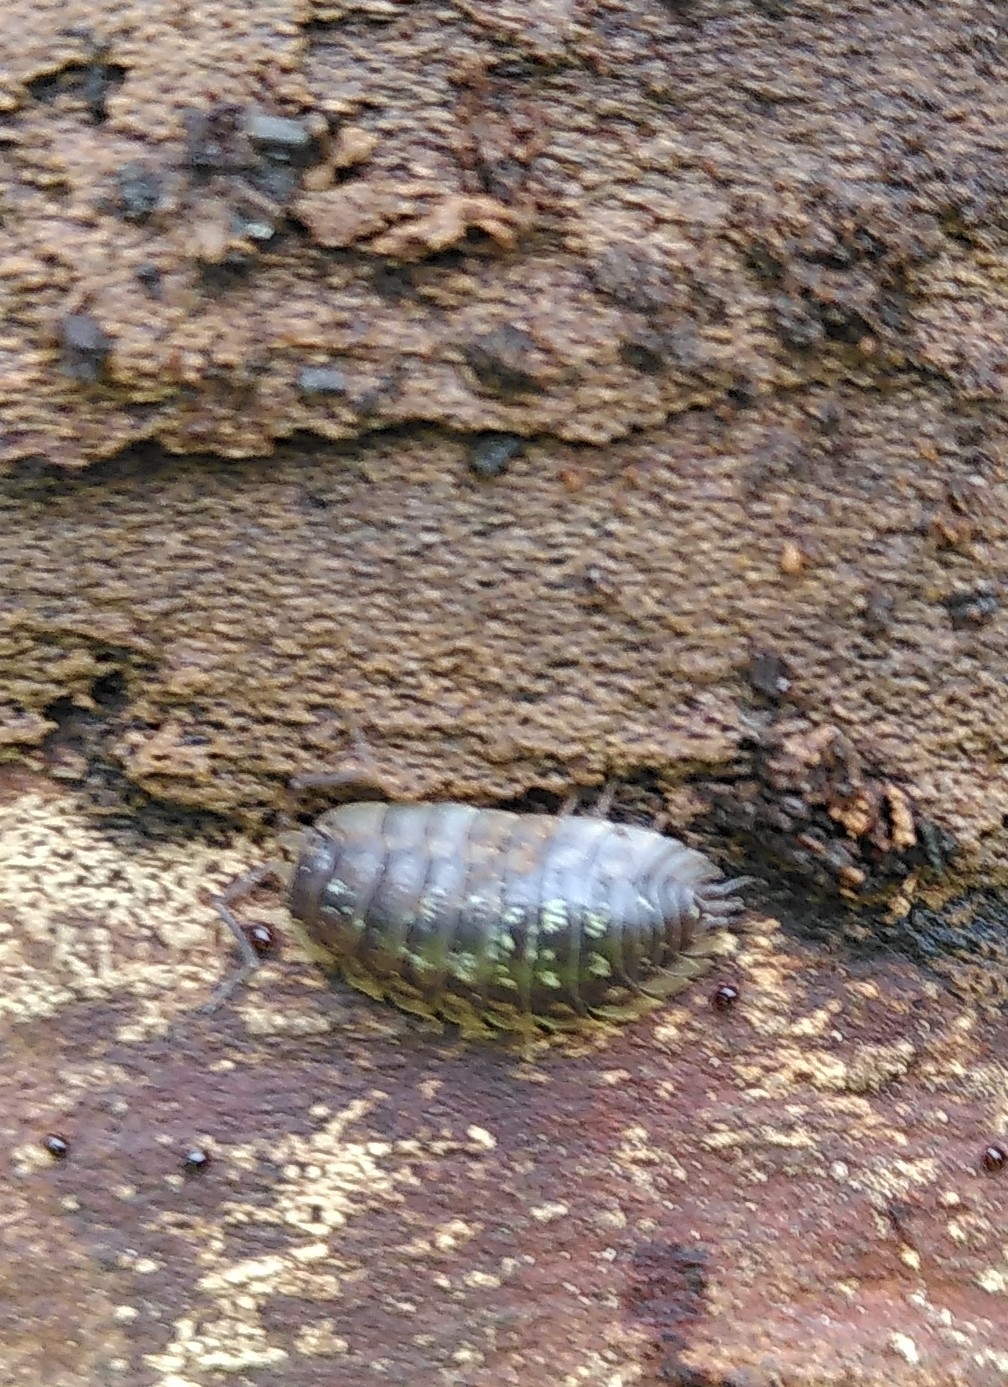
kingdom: Animalia
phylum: Arthropoda
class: Malacostraca
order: Isopoda
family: Oniscidae
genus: Oniscus
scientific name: Oniscus asellus
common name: Common shiny woodlouse
